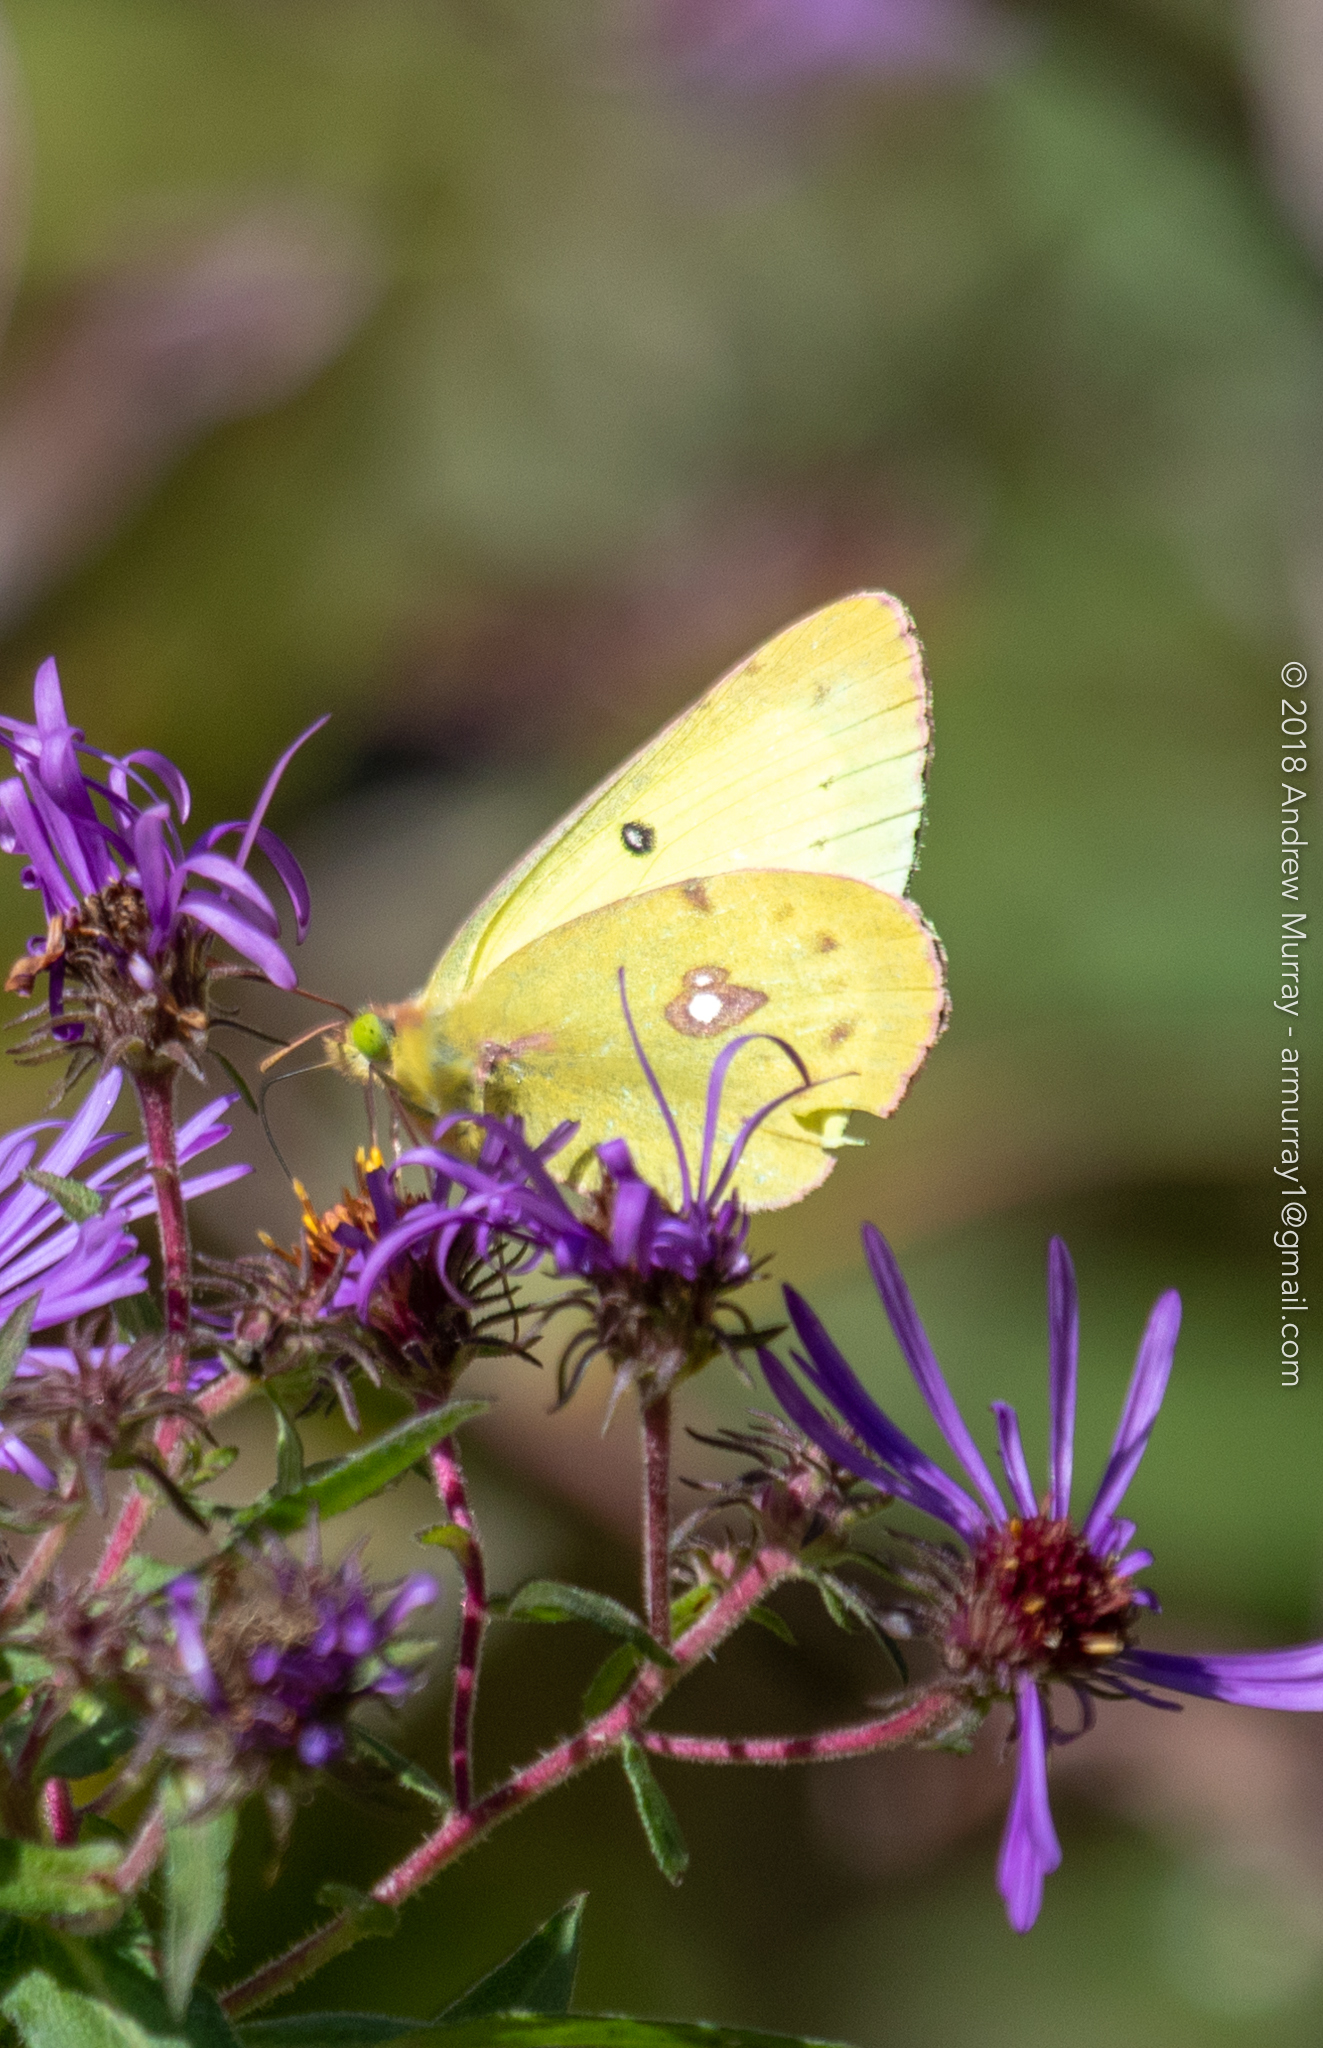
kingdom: Animalia
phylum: Arthropoda
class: Insecta
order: Lepidoptera
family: Pieridae
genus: Colias
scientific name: Colias philodice
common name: Clouded sulphur
